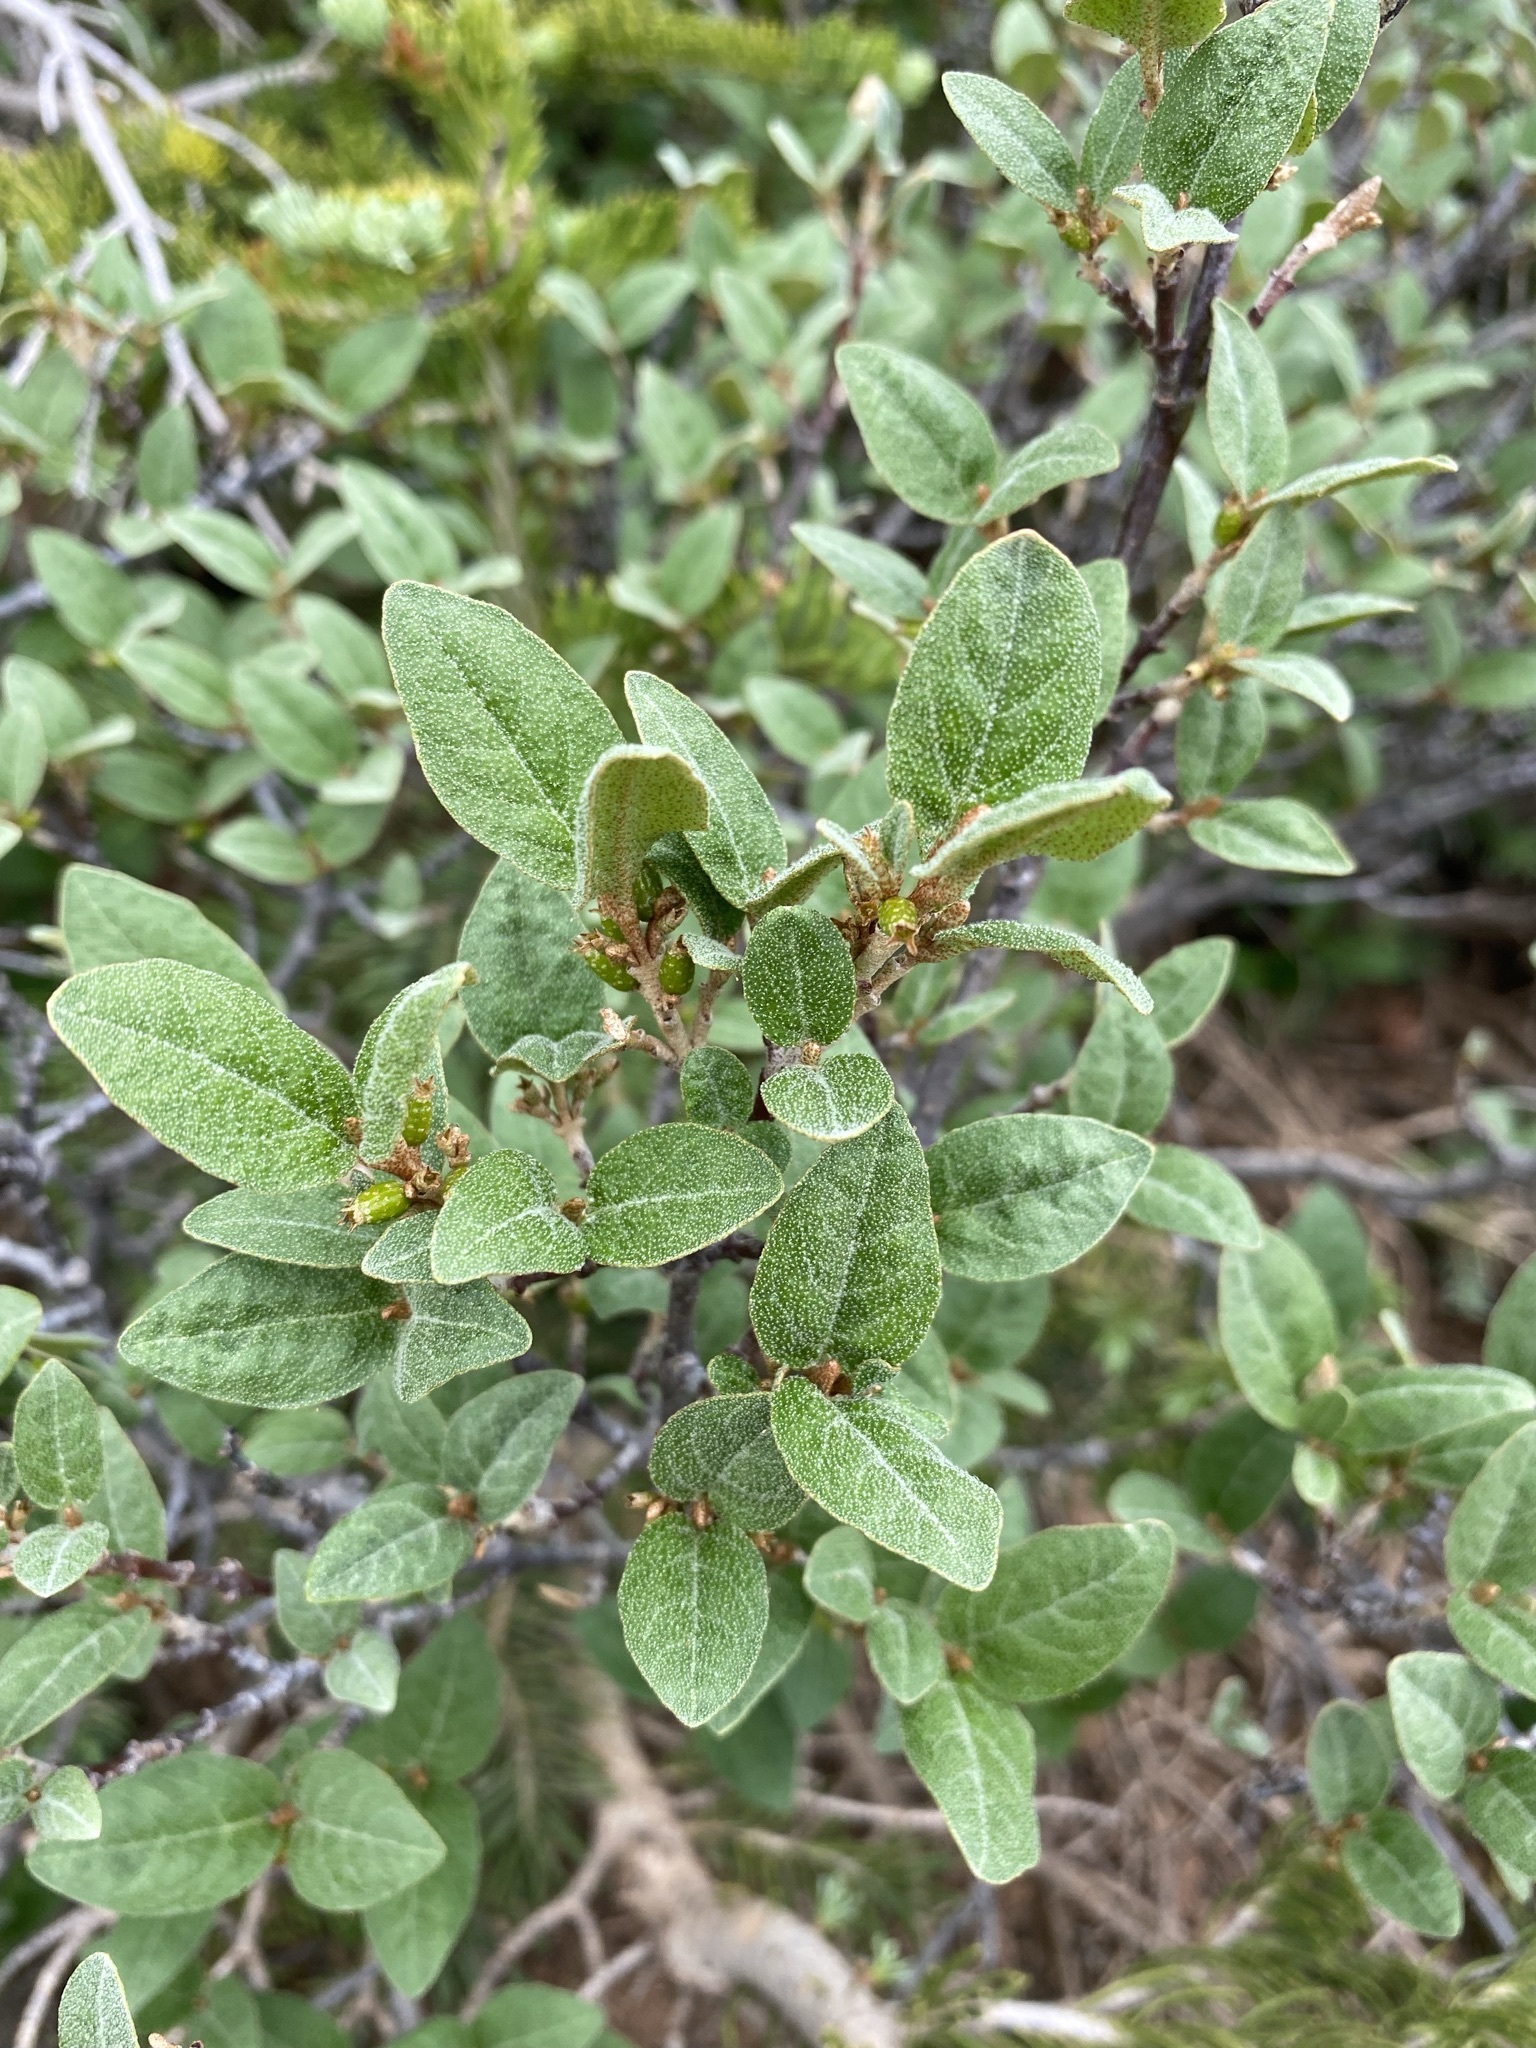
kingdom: Plantae
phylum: Tracheophyta
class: Magnoliopsida
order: Rosales
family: Elaeagnaceae
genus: Shepherdia
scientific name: Shepherdia canadensis
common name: Soapberry
